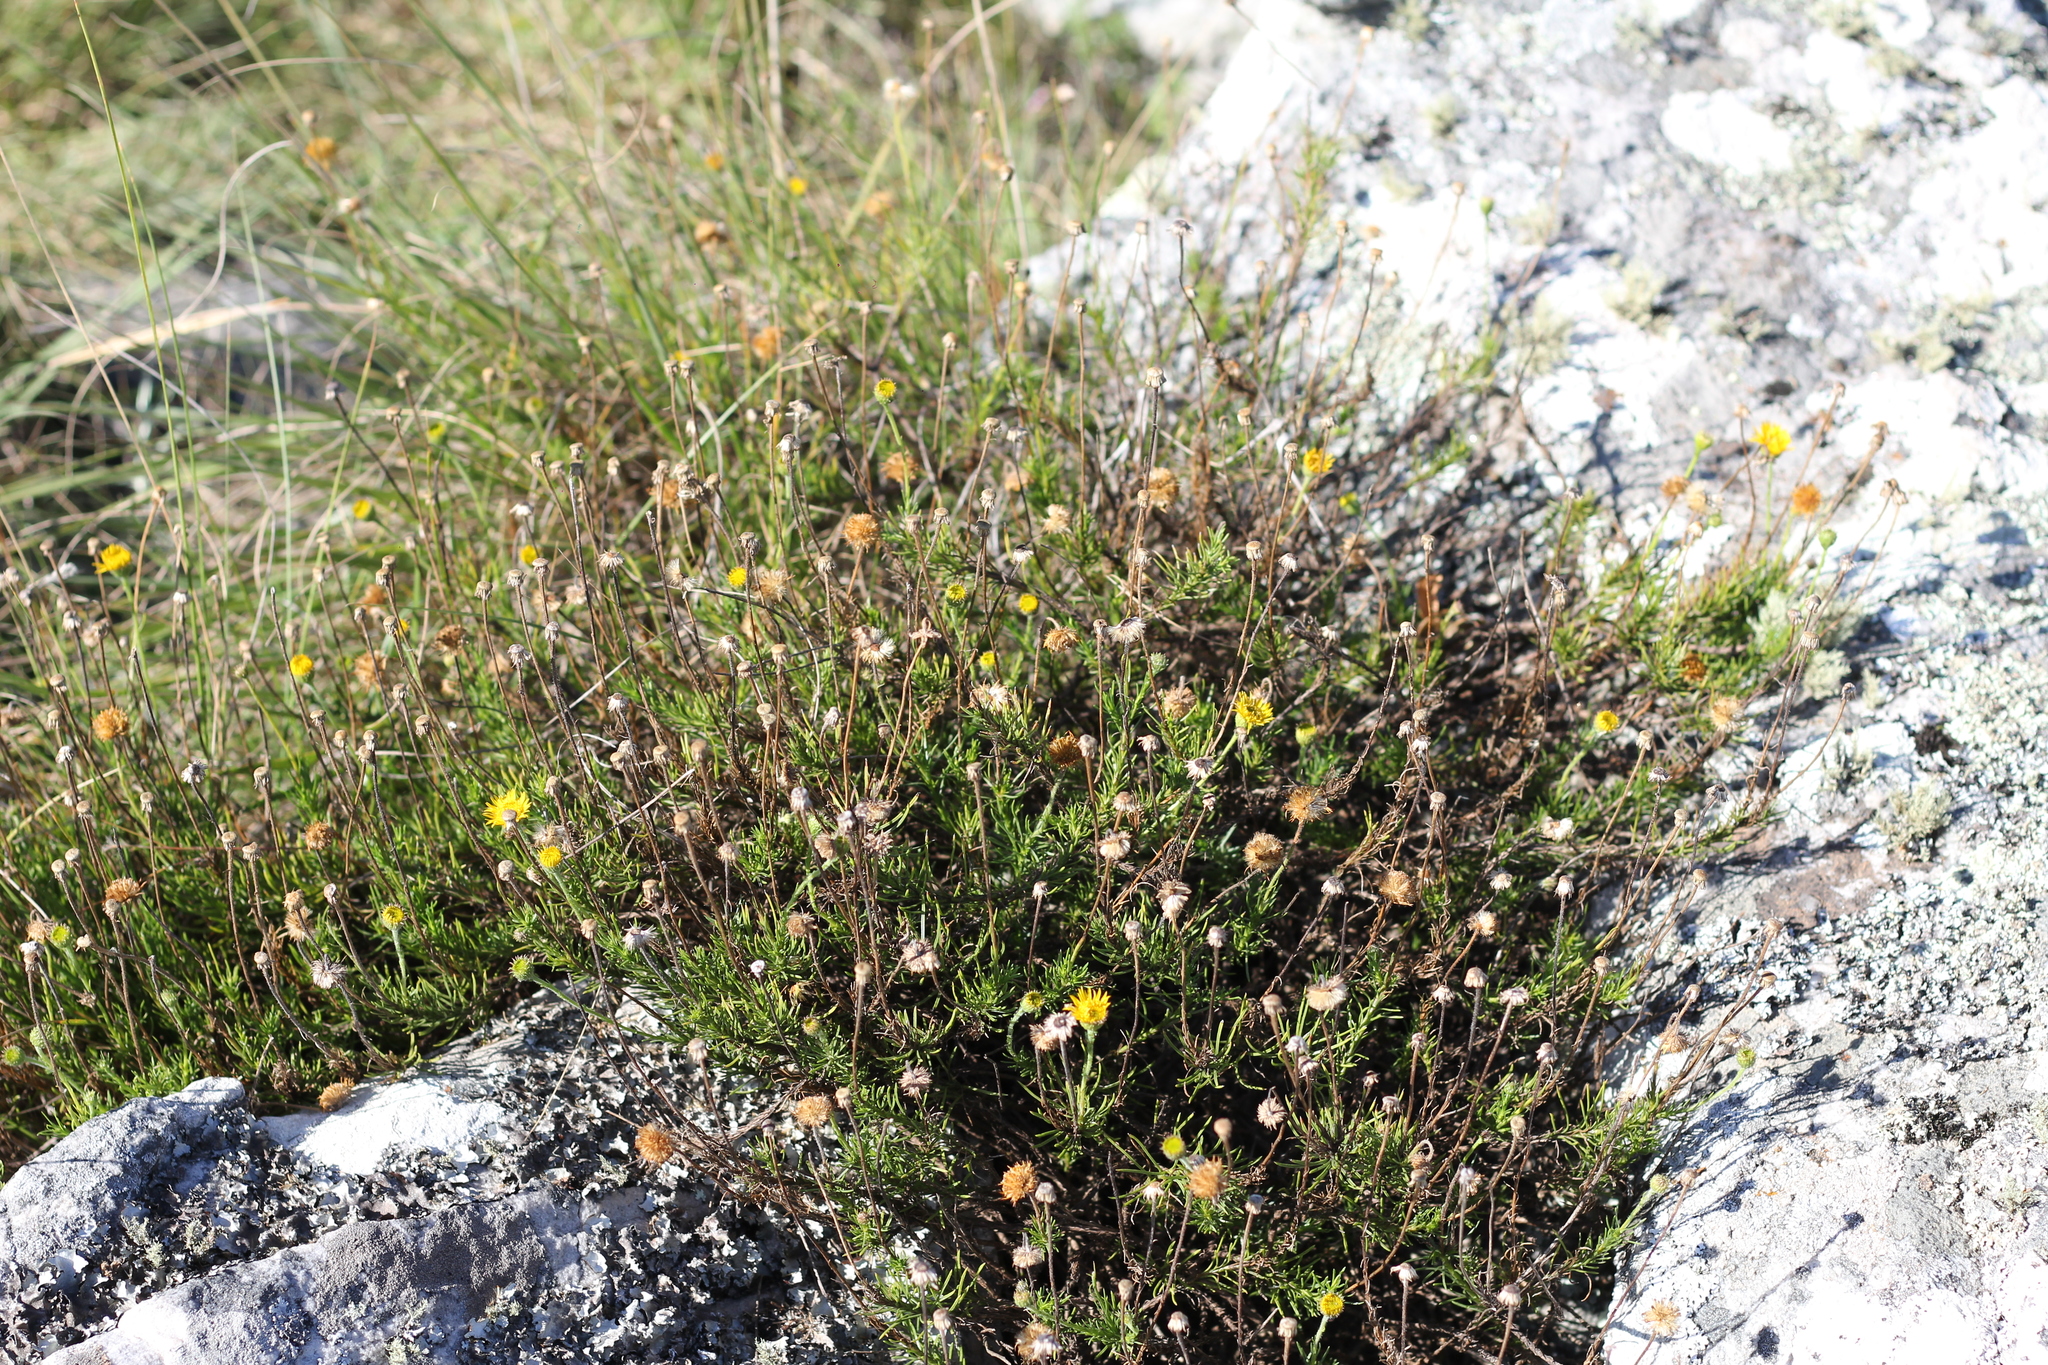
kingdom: Plantae
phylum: Tracheophyta
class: Magnoliopsida
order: Asterales
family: Asteraceae
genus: Neja
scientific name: Neja pinifolia
